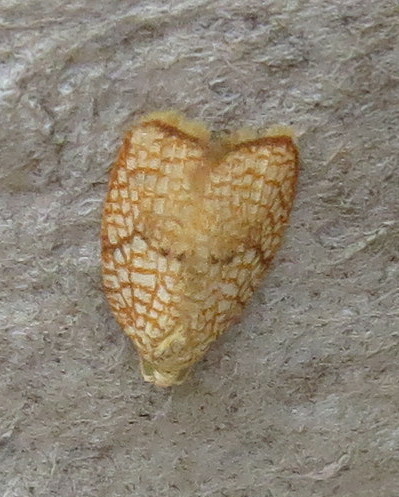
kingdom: Animalia
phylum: Arthropoda
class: Insecta
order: Lepidoptera
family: Tortricidae
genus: Acleris
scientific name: Acleris forsskaleana
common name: Maple button
